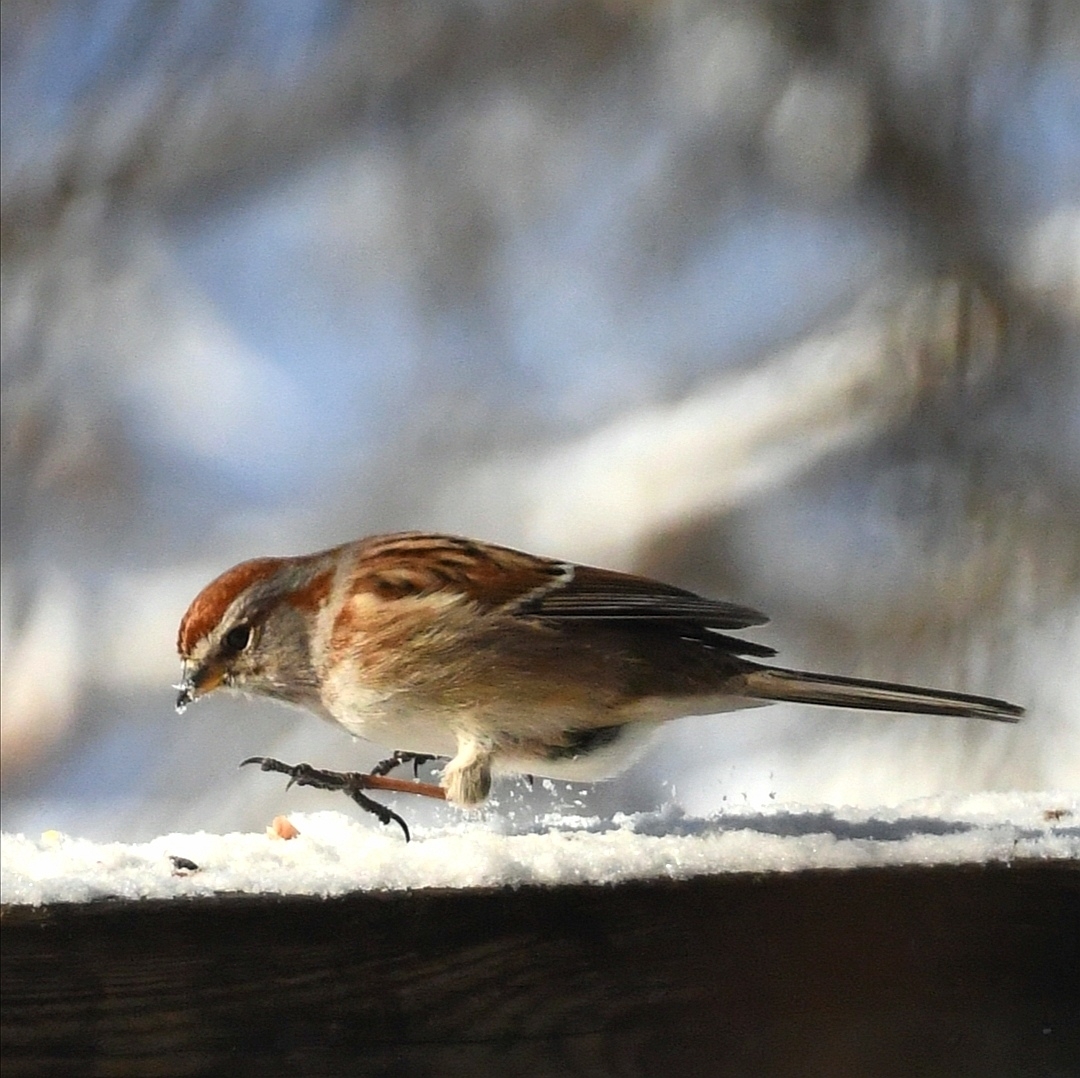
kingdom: Animalia
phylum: Chordata
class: Aves
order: Passeriformes
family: Passerellidae
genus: Spizelloides
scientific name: Spizelloides arborea
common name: American tree sparrow
